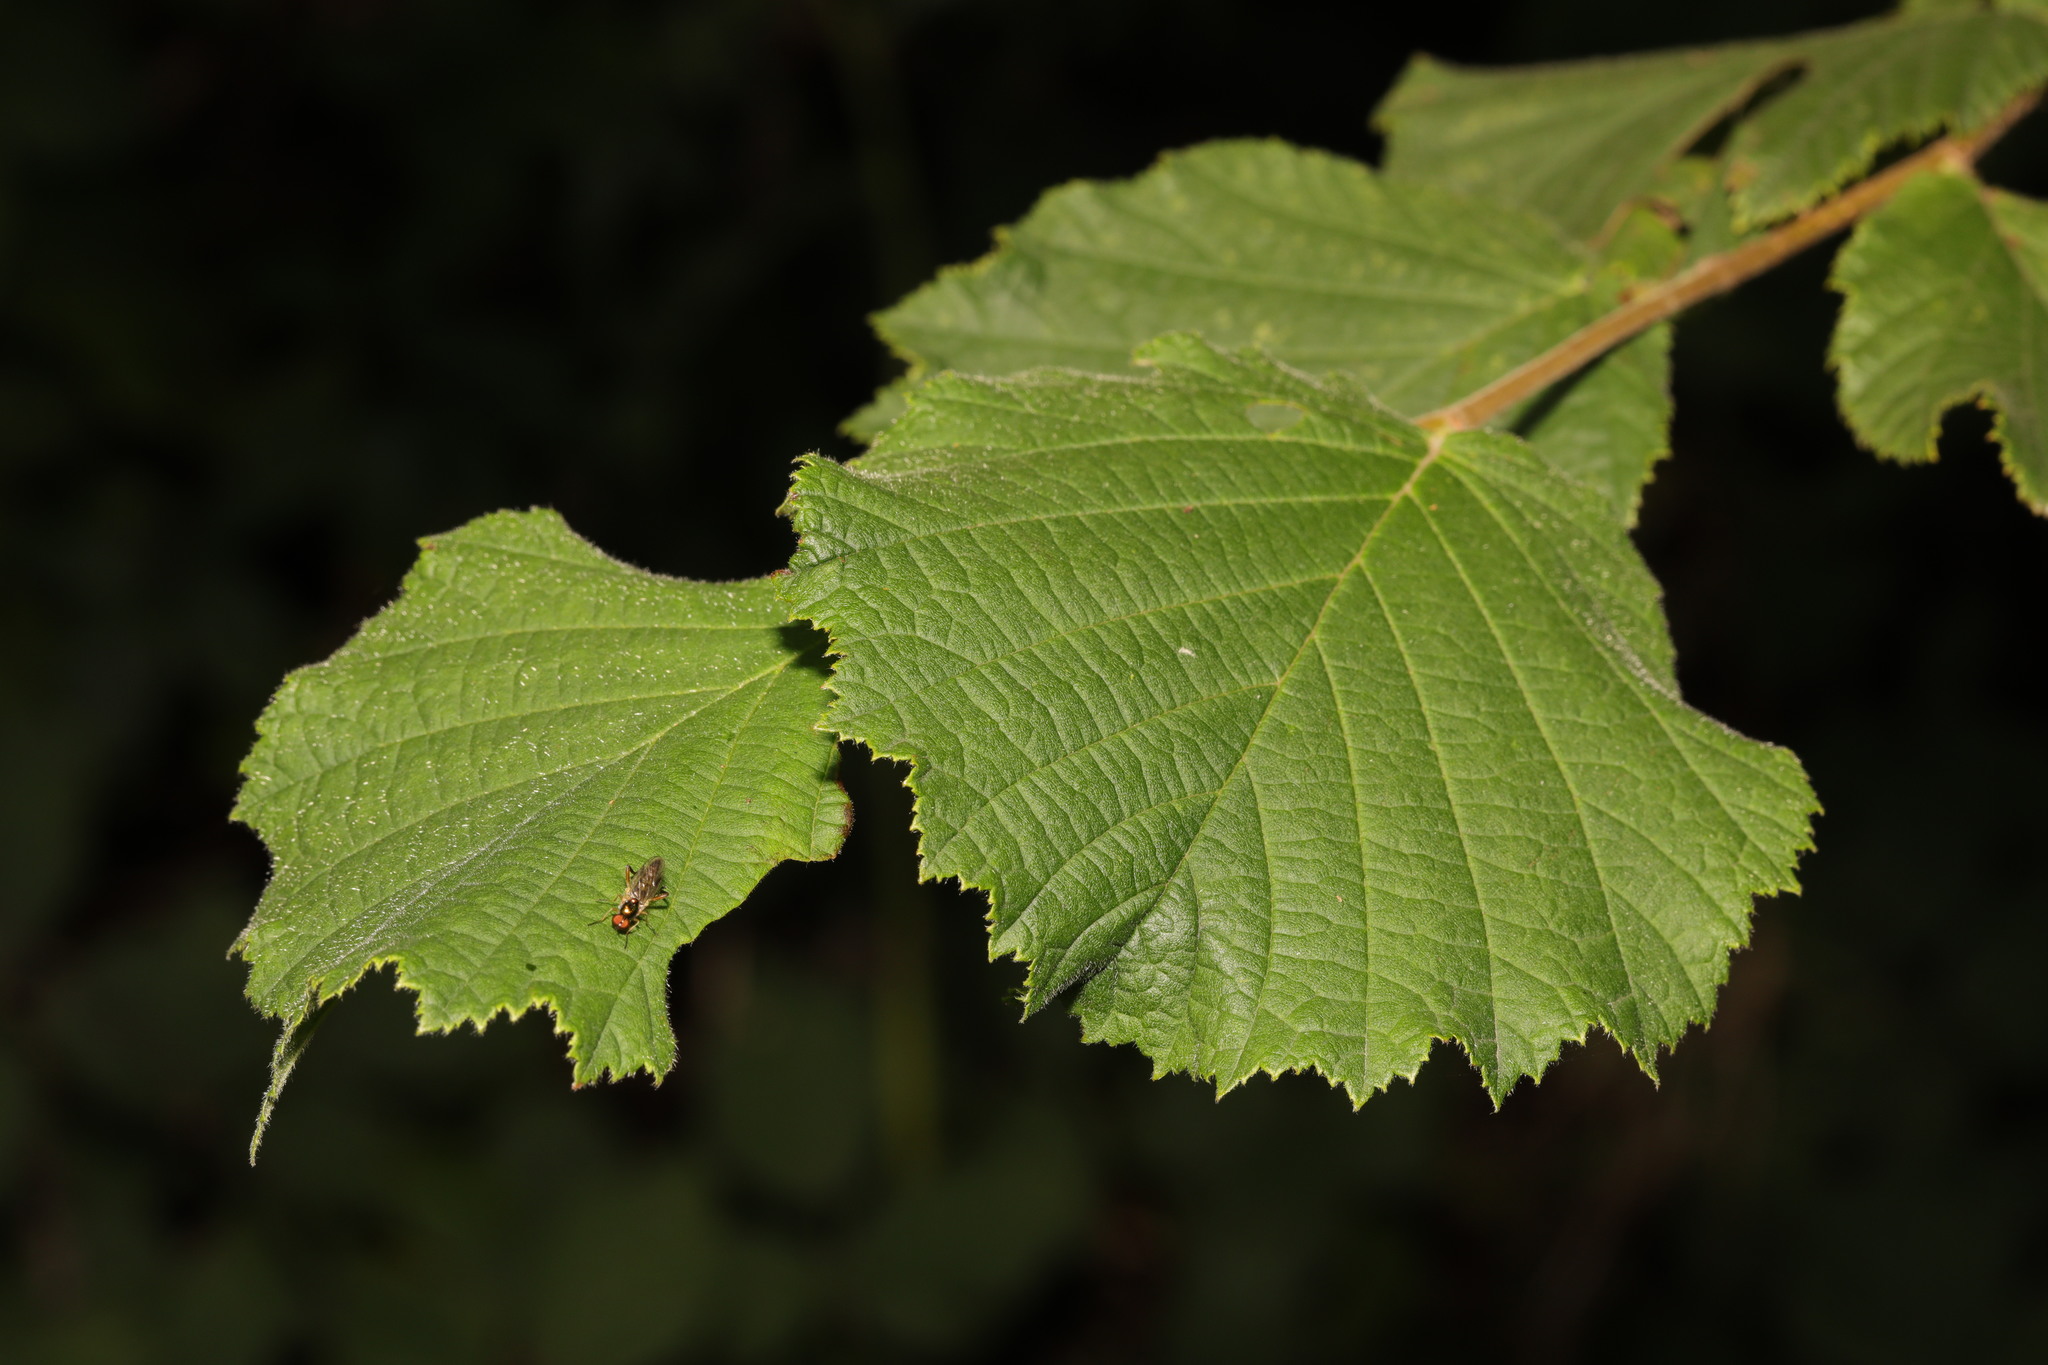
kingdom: Plantae
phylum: Tracheophyta
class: Magnoliopsida
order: Fagales
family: Betulaceae
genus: Corylus
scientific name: Corylus avellana
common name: European hazel
